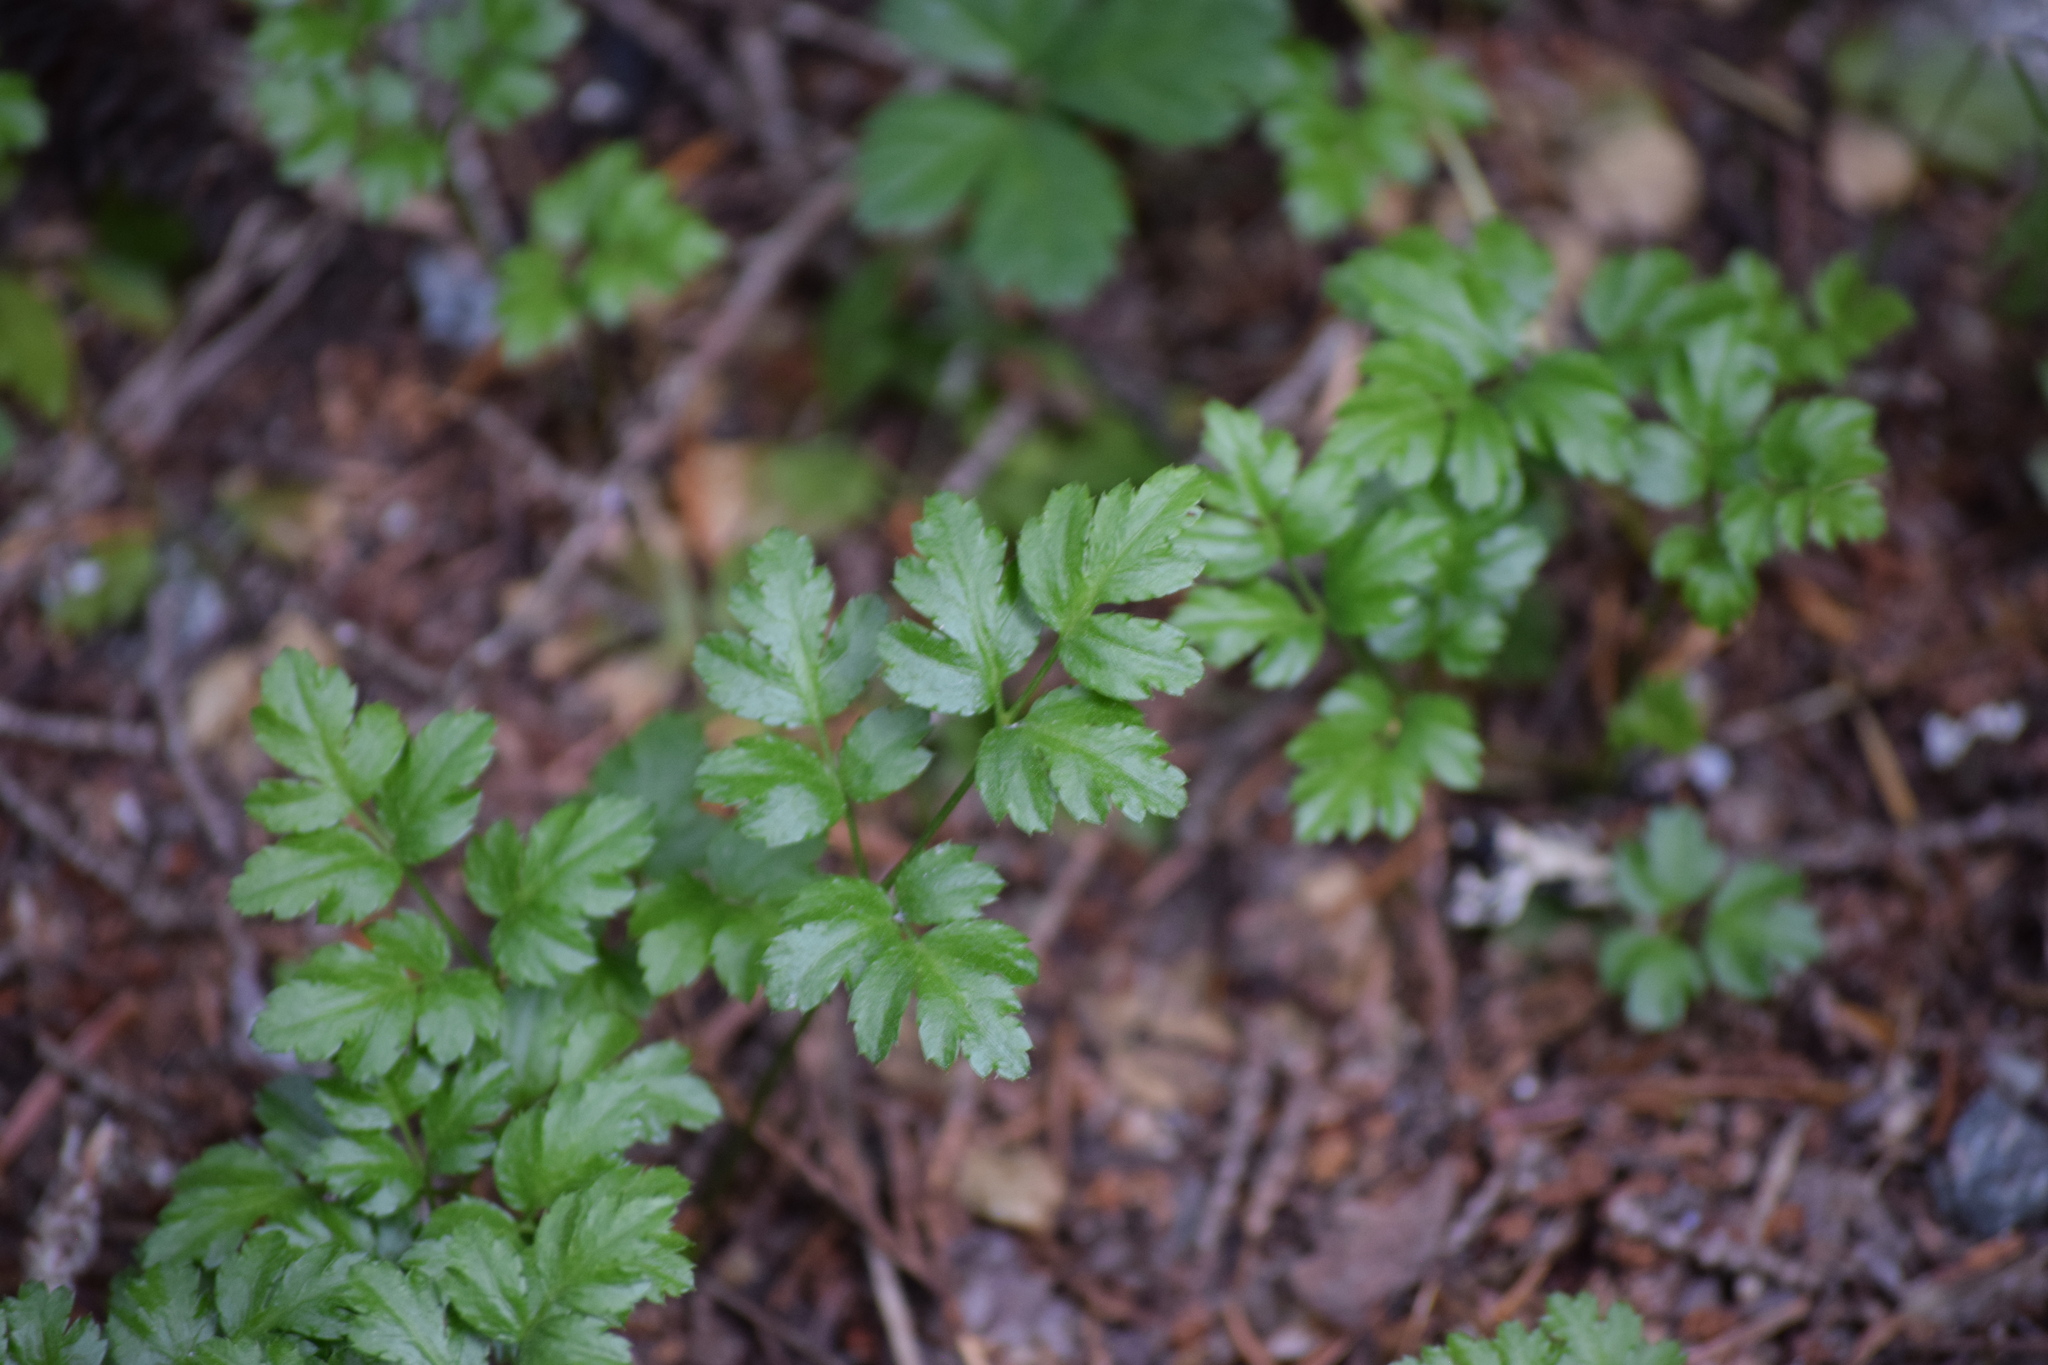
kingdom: Plantae
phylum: Tracheophyta
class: Magnoliopsida
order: Ranunculales
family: Ranunculaceae
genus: Coptis
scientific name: Coptis aspleniifolia
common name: Fern-leaved goldthread
